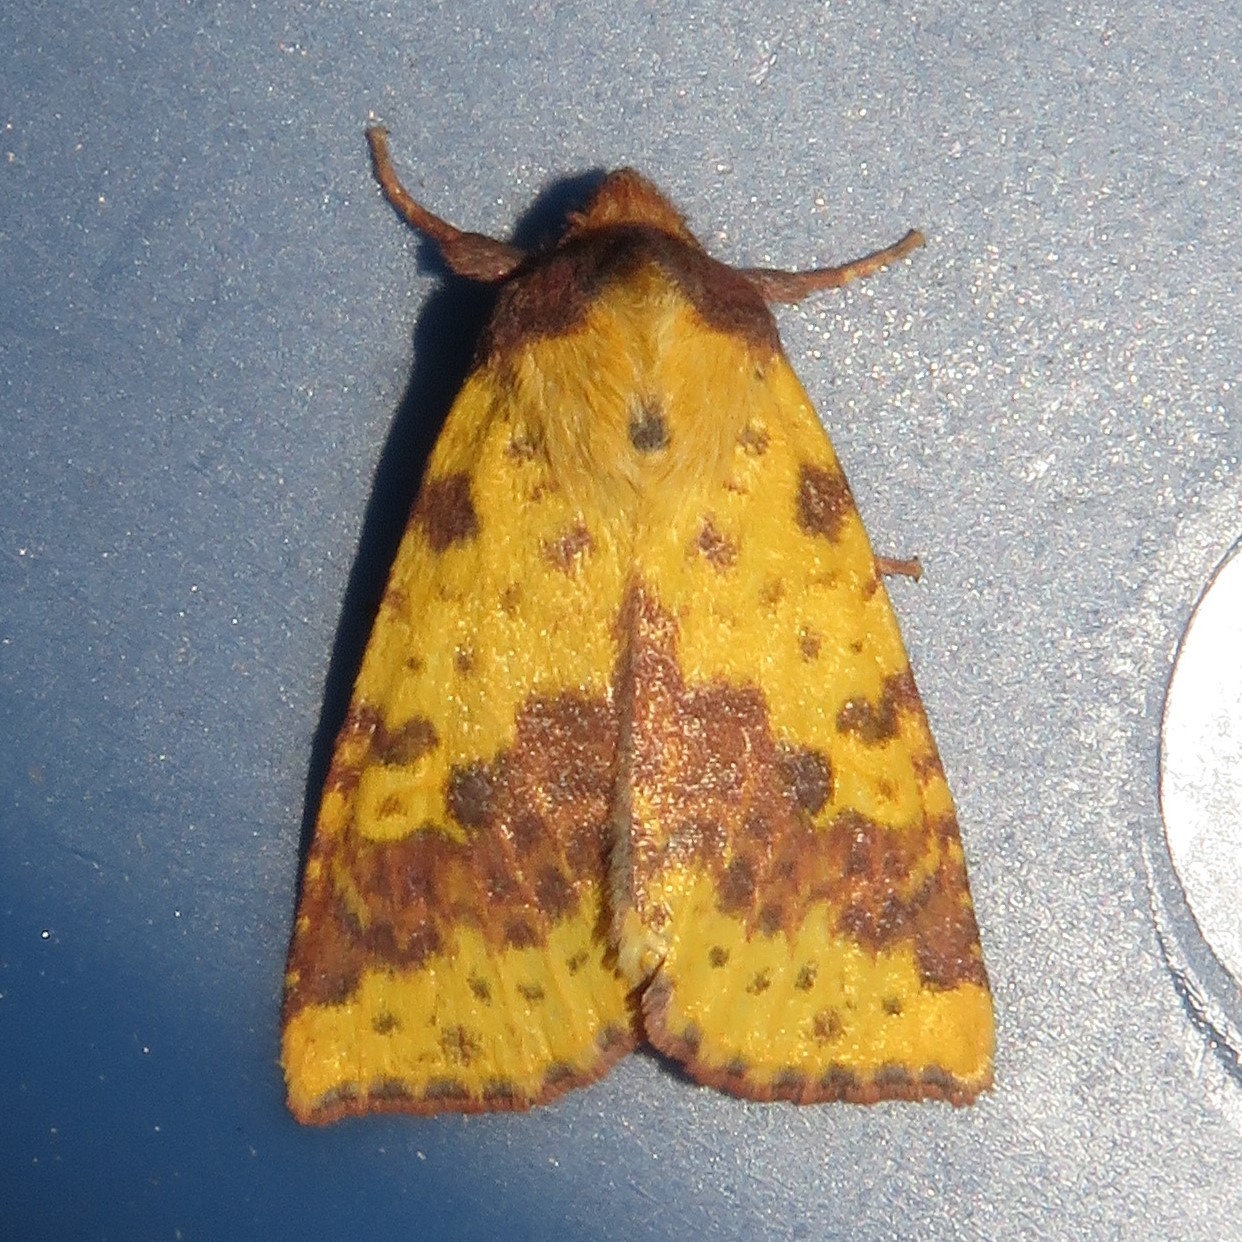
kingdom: Animalia
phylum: Arthropoda
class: Insecta
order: Lepidoptera
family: Noctuidae
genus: Xanthia
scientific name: Xanthia tatago
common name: Pink-banded sallow
